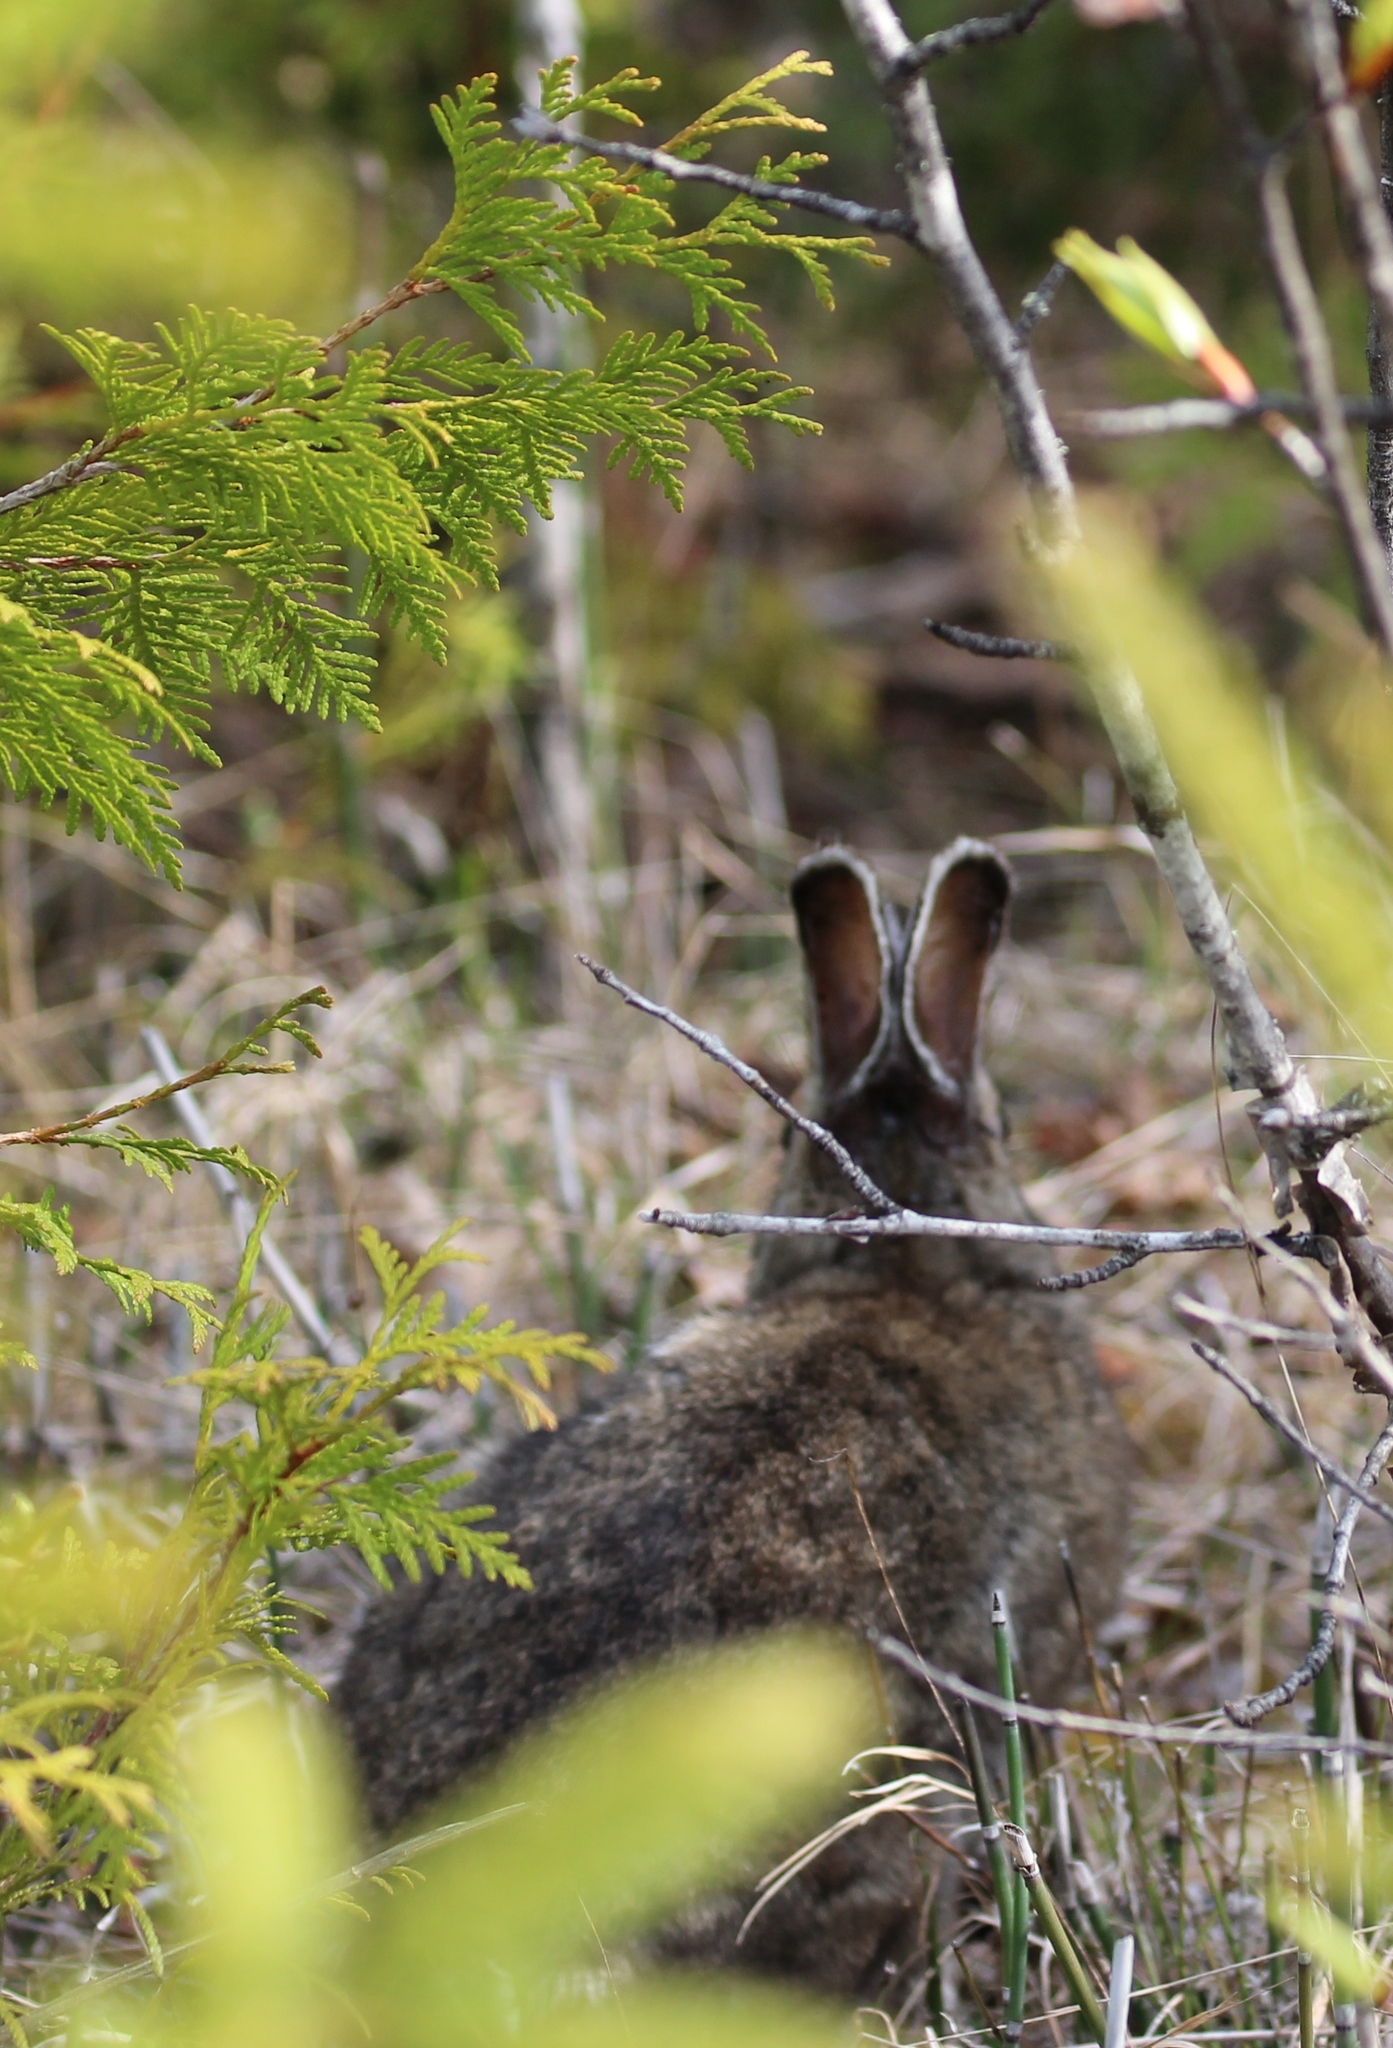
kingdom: Animalia
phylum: Chordata
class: Mammalia
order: Lagomorpha
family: Leporidae
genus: Lepus
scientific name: Lepus americanus
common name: Snowshoe hare
